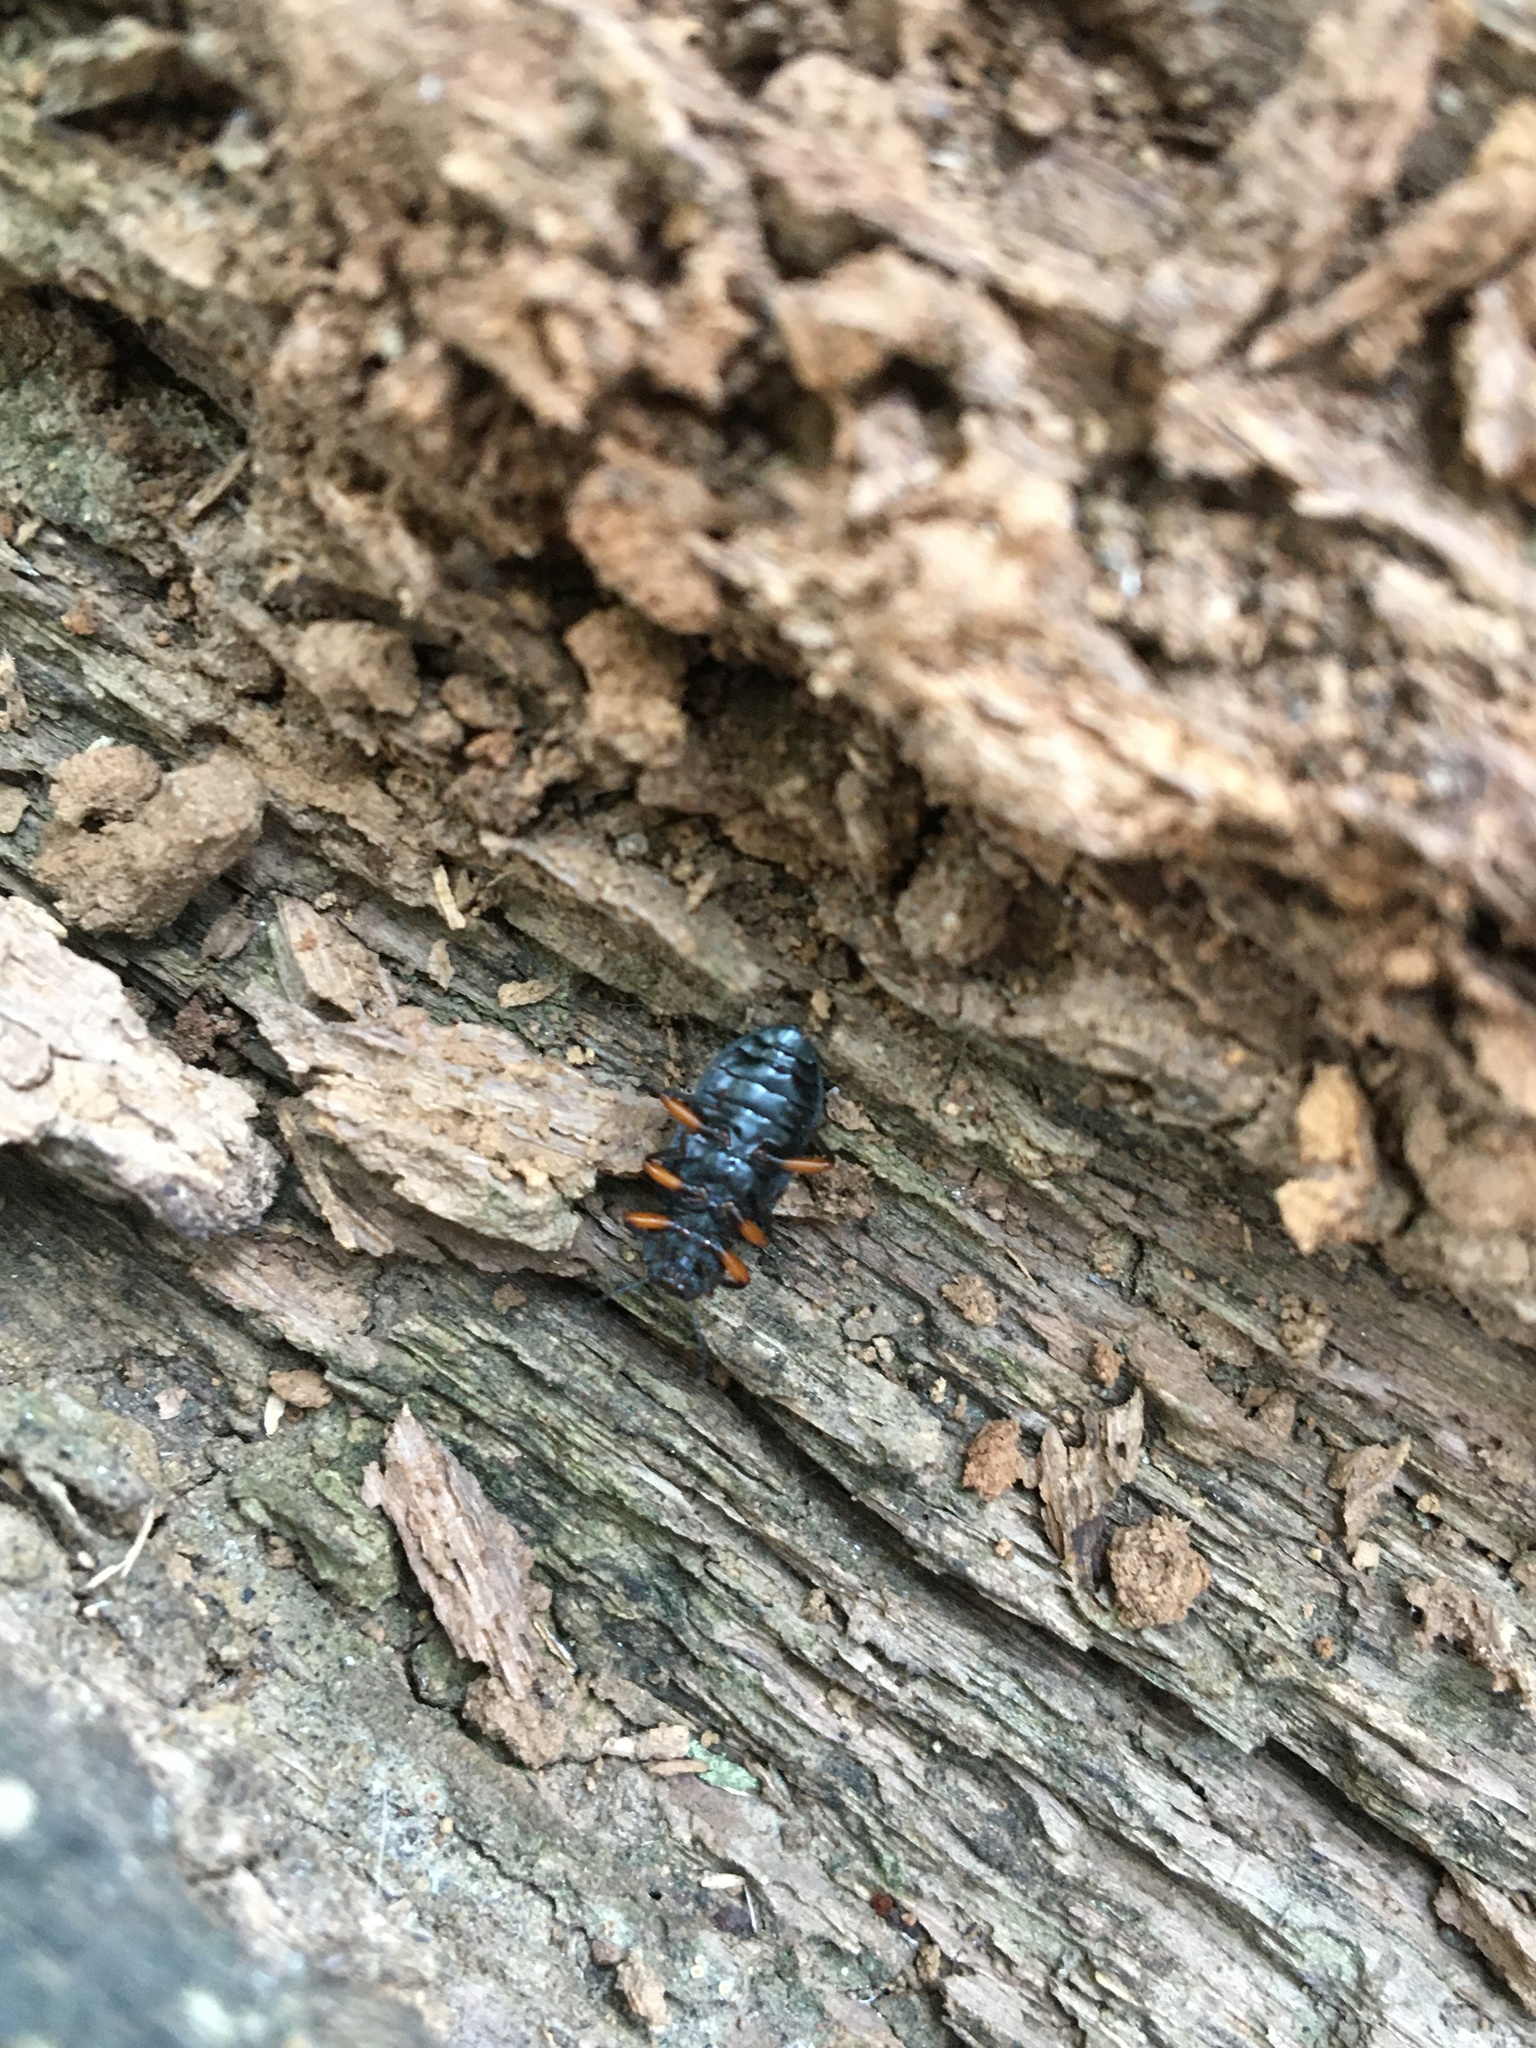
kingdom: Animalia
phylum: Arthropoda
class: Insecta
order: Coleoptera
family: Tenebrionidae
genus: Haplandrus
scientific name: Haplandrus fulvipes
